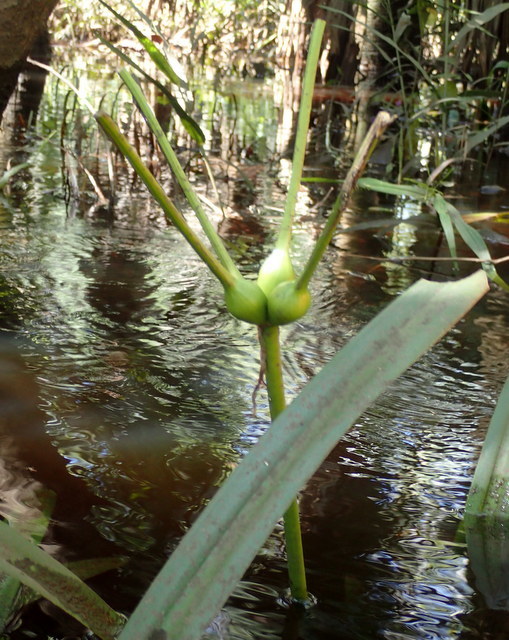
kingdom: Plantae
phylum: Tracheophyta
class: Liliopsida
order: Asparagales
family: Amaryllidaceae
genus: Crinum
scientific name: Crinum americanum
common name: Florida swamp-lily
